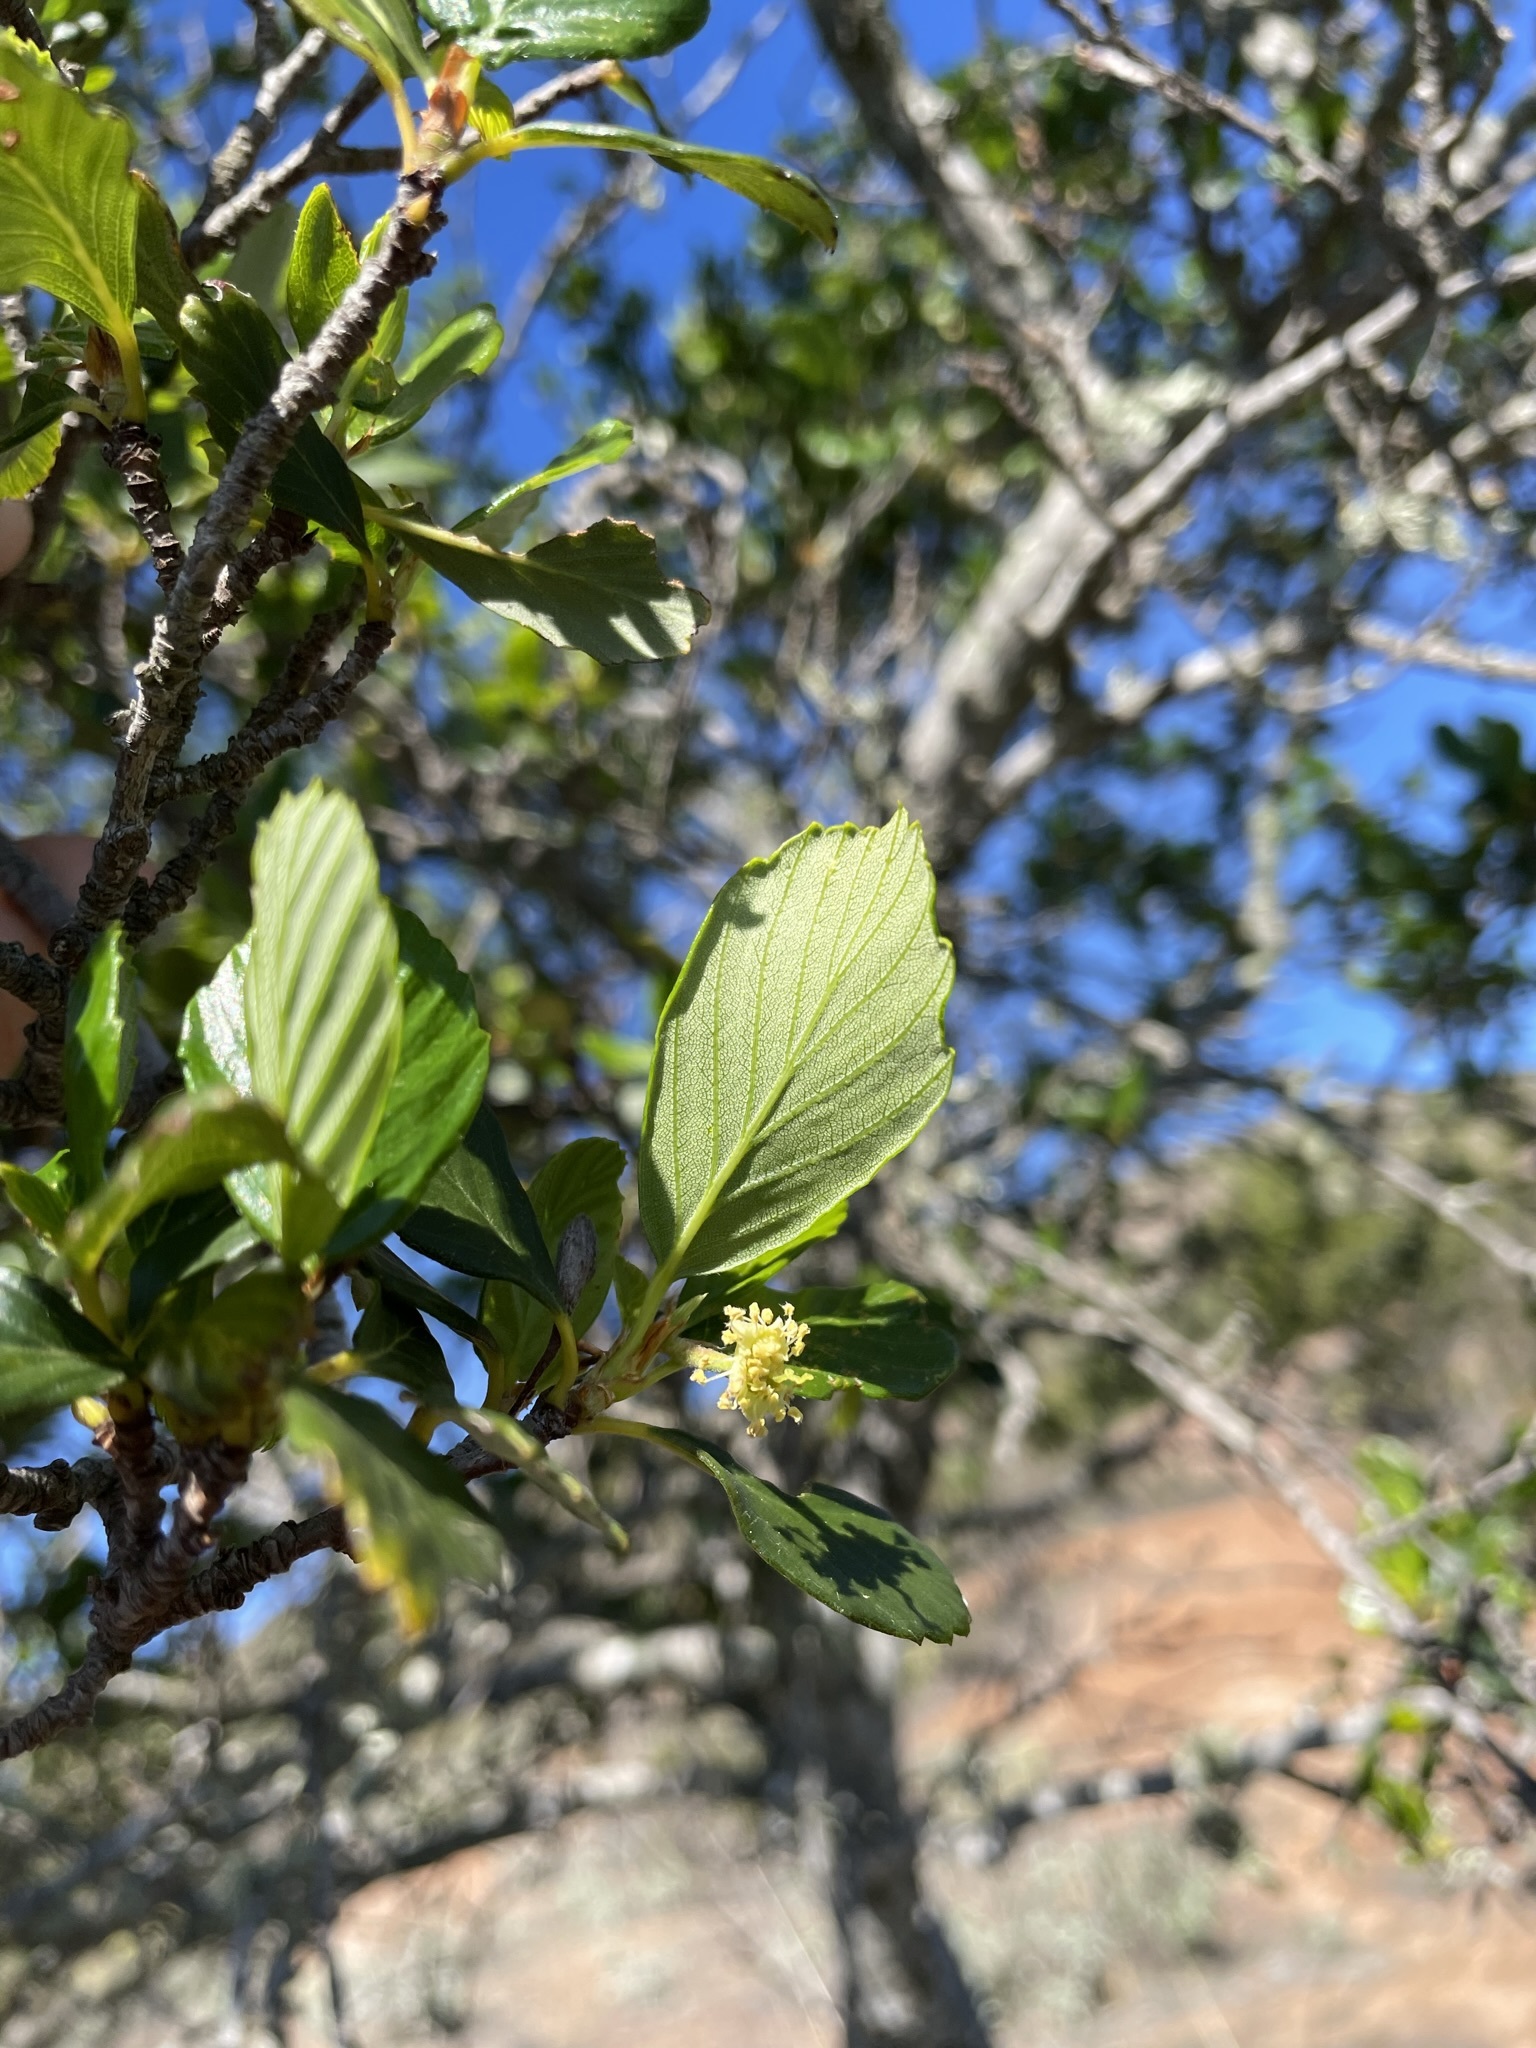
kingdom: Plantae
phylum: Tracheophyta
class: Magnoliopsida
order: Rosales
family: Rosaceae
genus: Cercocarpus
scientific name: Cercocarpus betuloides
